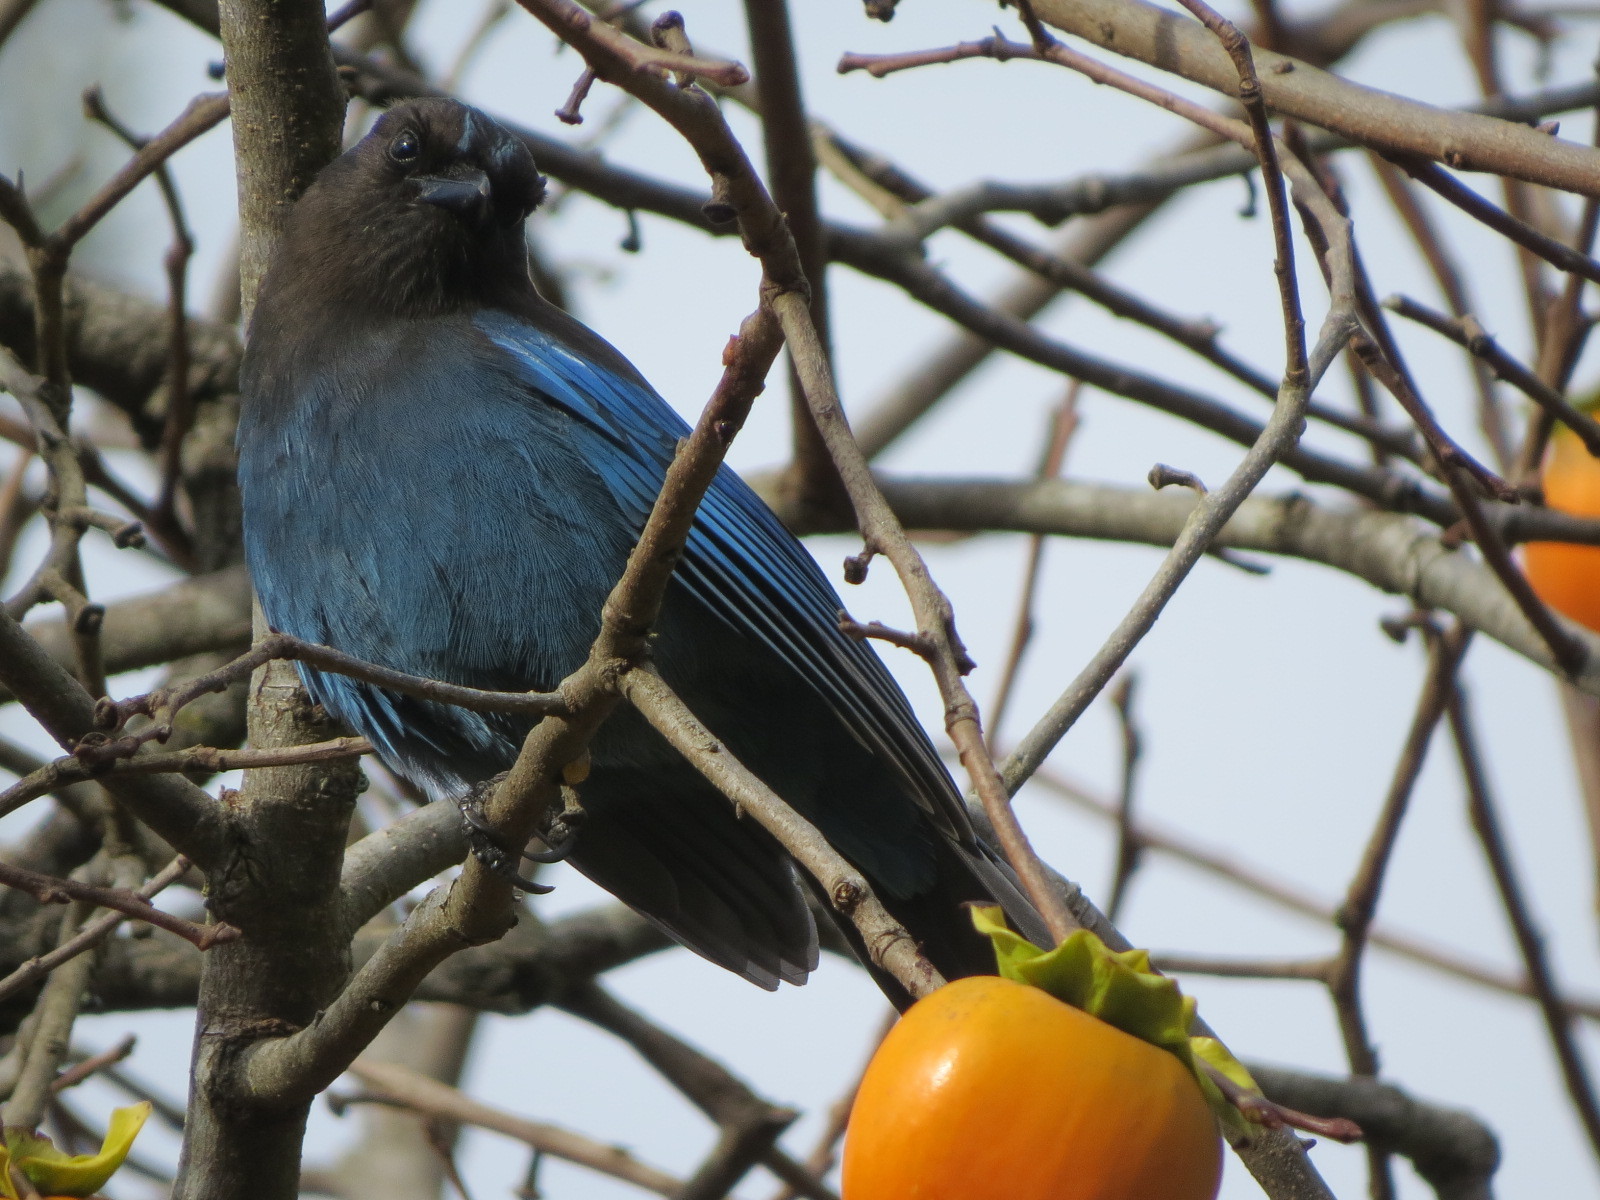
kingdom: Animalia
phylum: Chordata
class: Aves
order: Passeriformes
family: Corvidae
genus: Cyanocitta
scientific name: Cyanocitta stelleri
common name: Steller's jay
